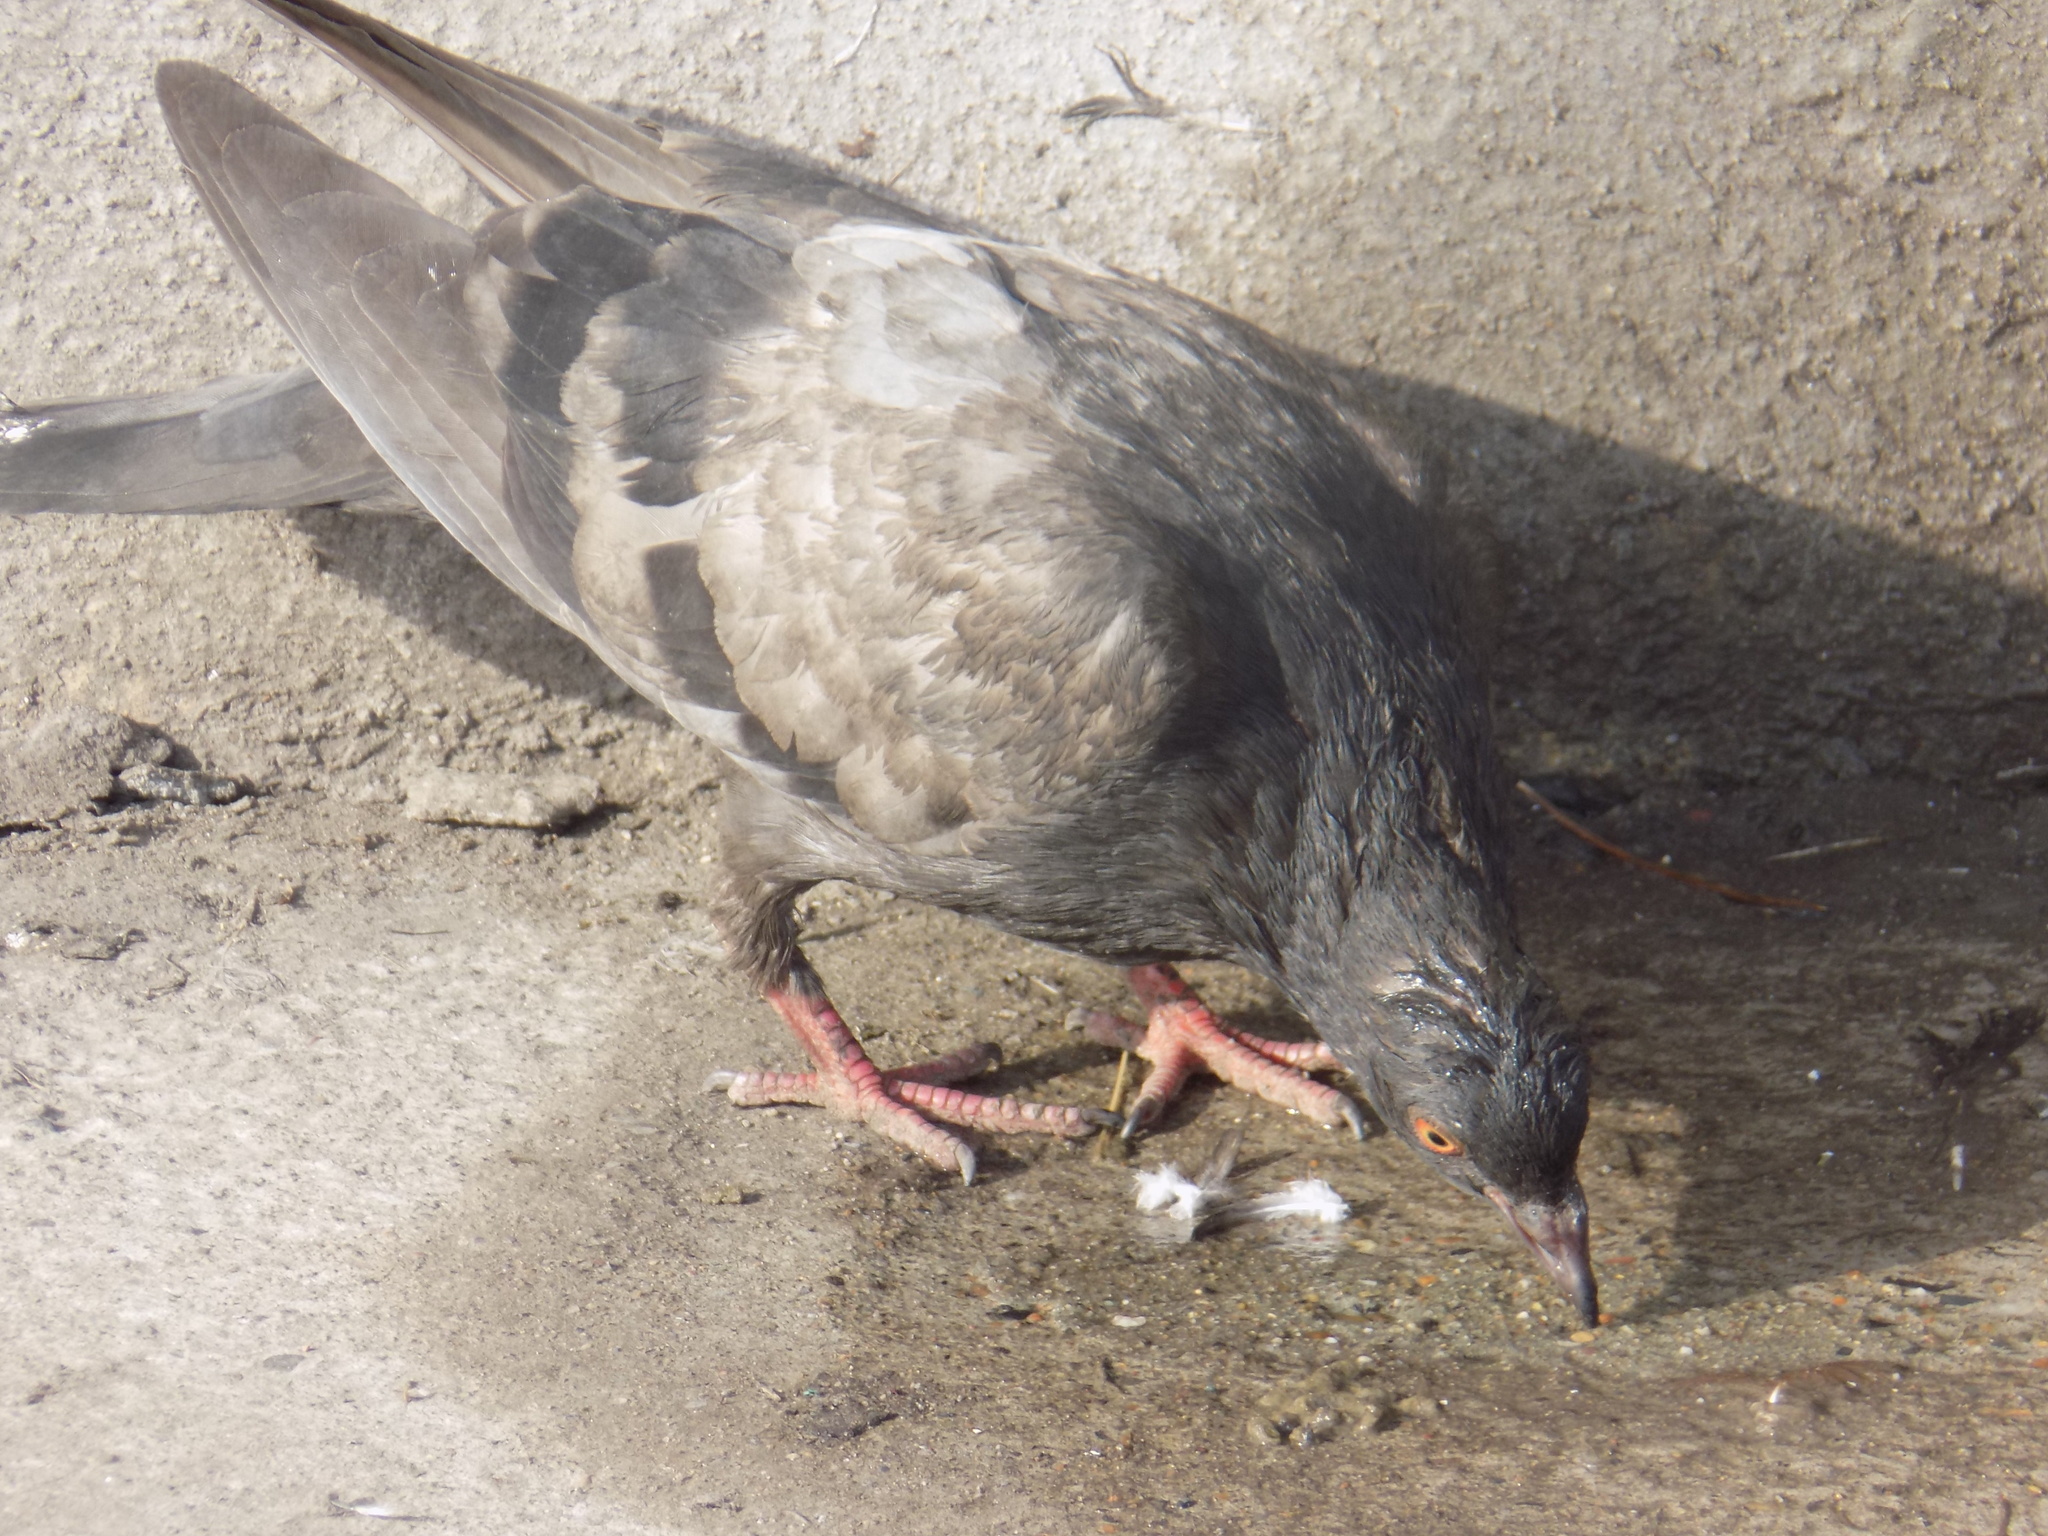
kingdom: Animalia
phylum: Chordata
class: Aves
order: Columbiformes
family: Columbidae
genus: Columba
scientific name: Columba livia
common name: Rock pigeon
